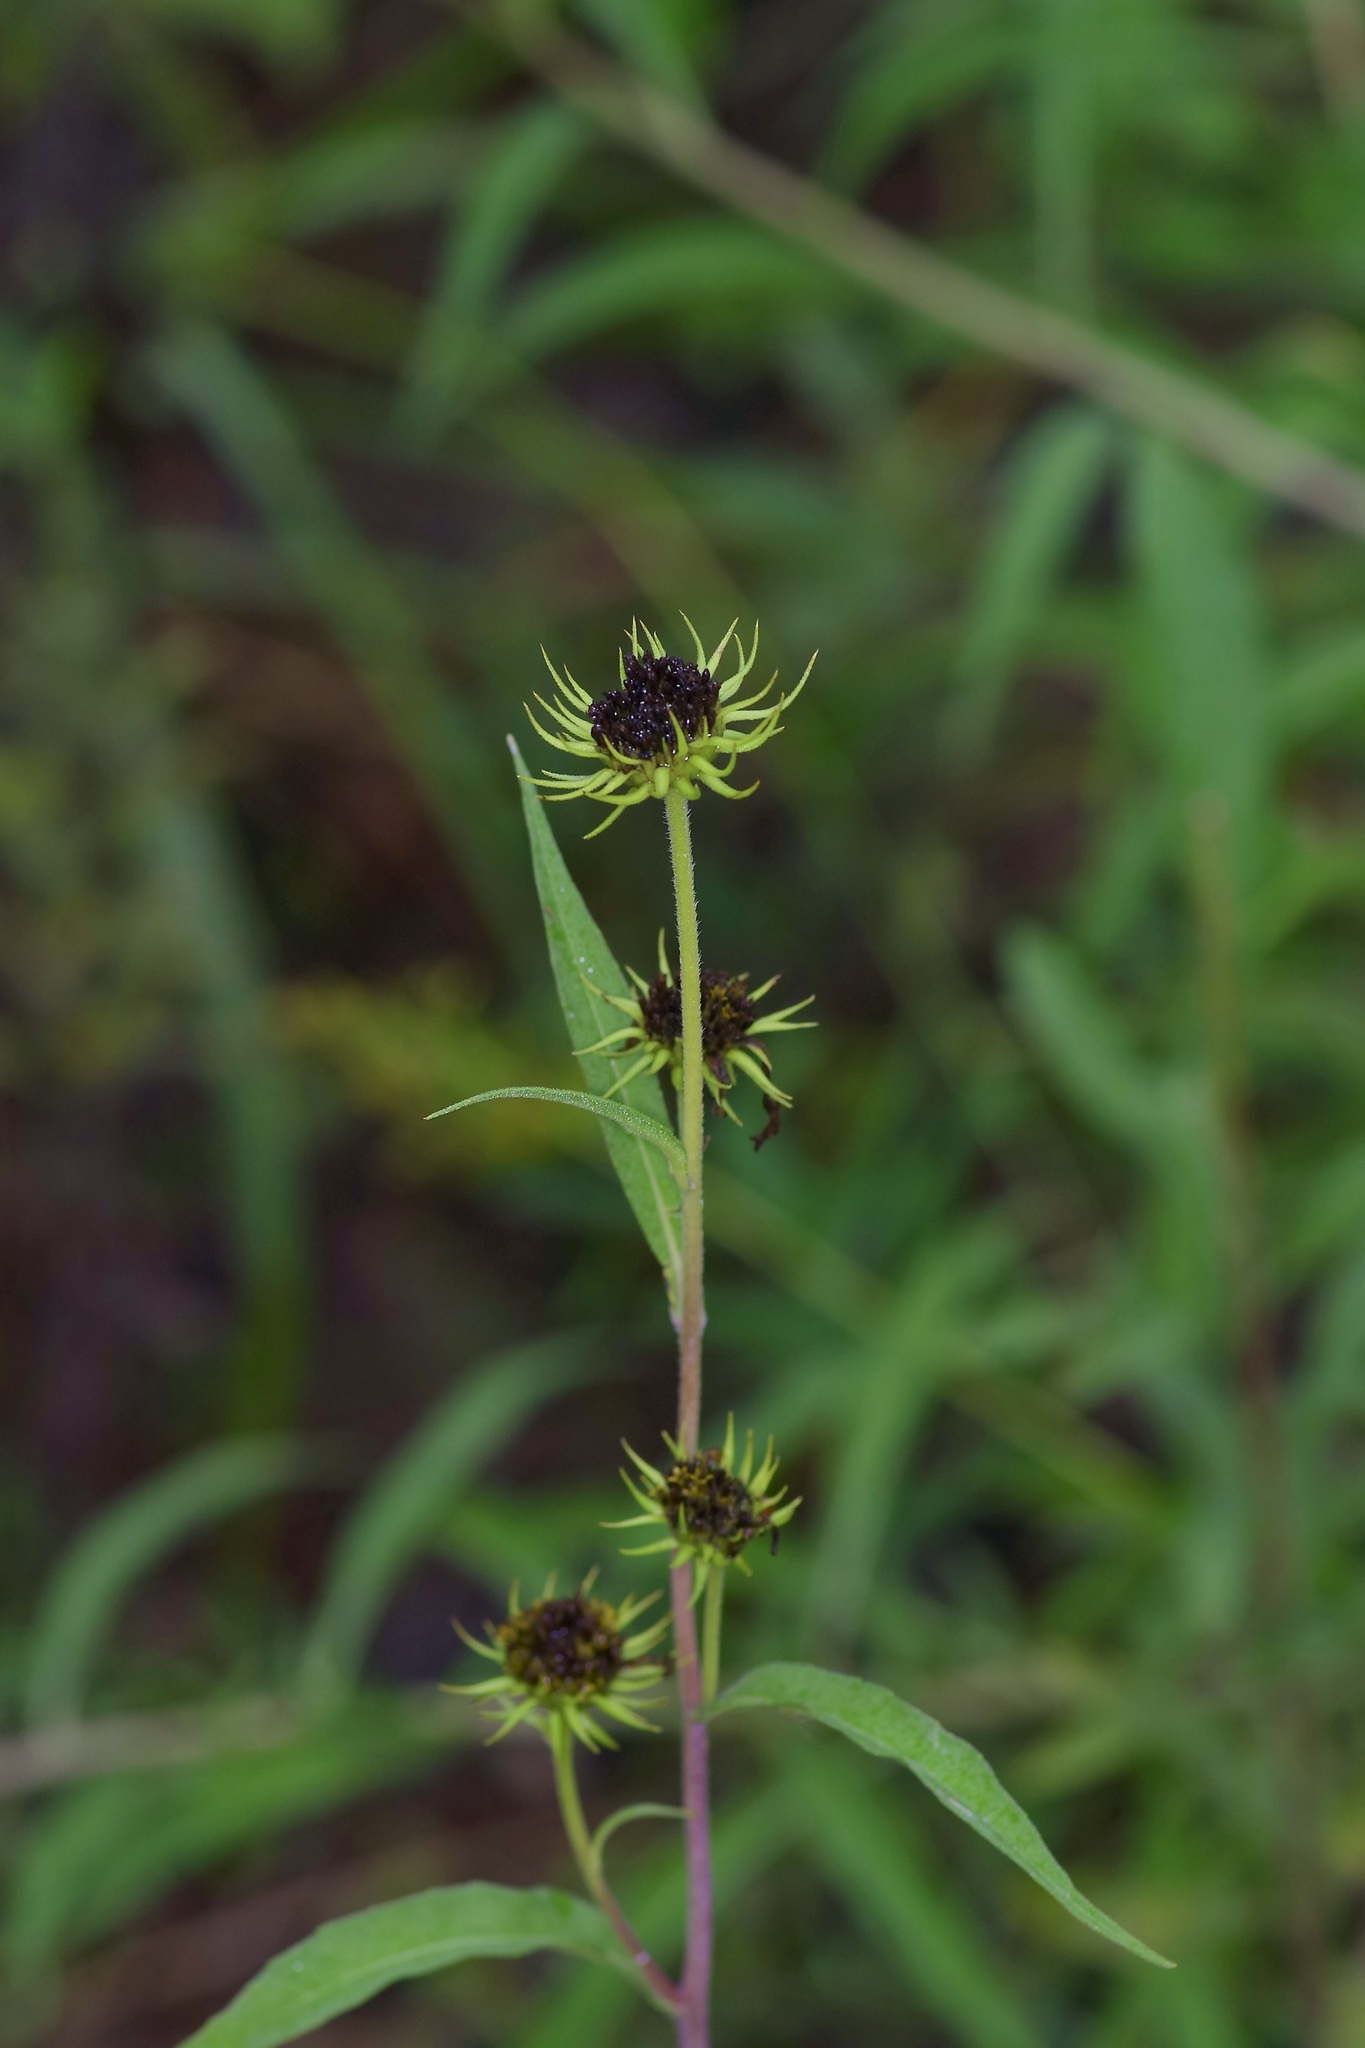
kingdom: Plantae
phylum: Tracheophyta
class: Magnoliopsida
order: Asterales
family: Asteraceae
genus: Helianthus
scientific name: Helianthus maximiliani
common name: Maximilian's sunflower
